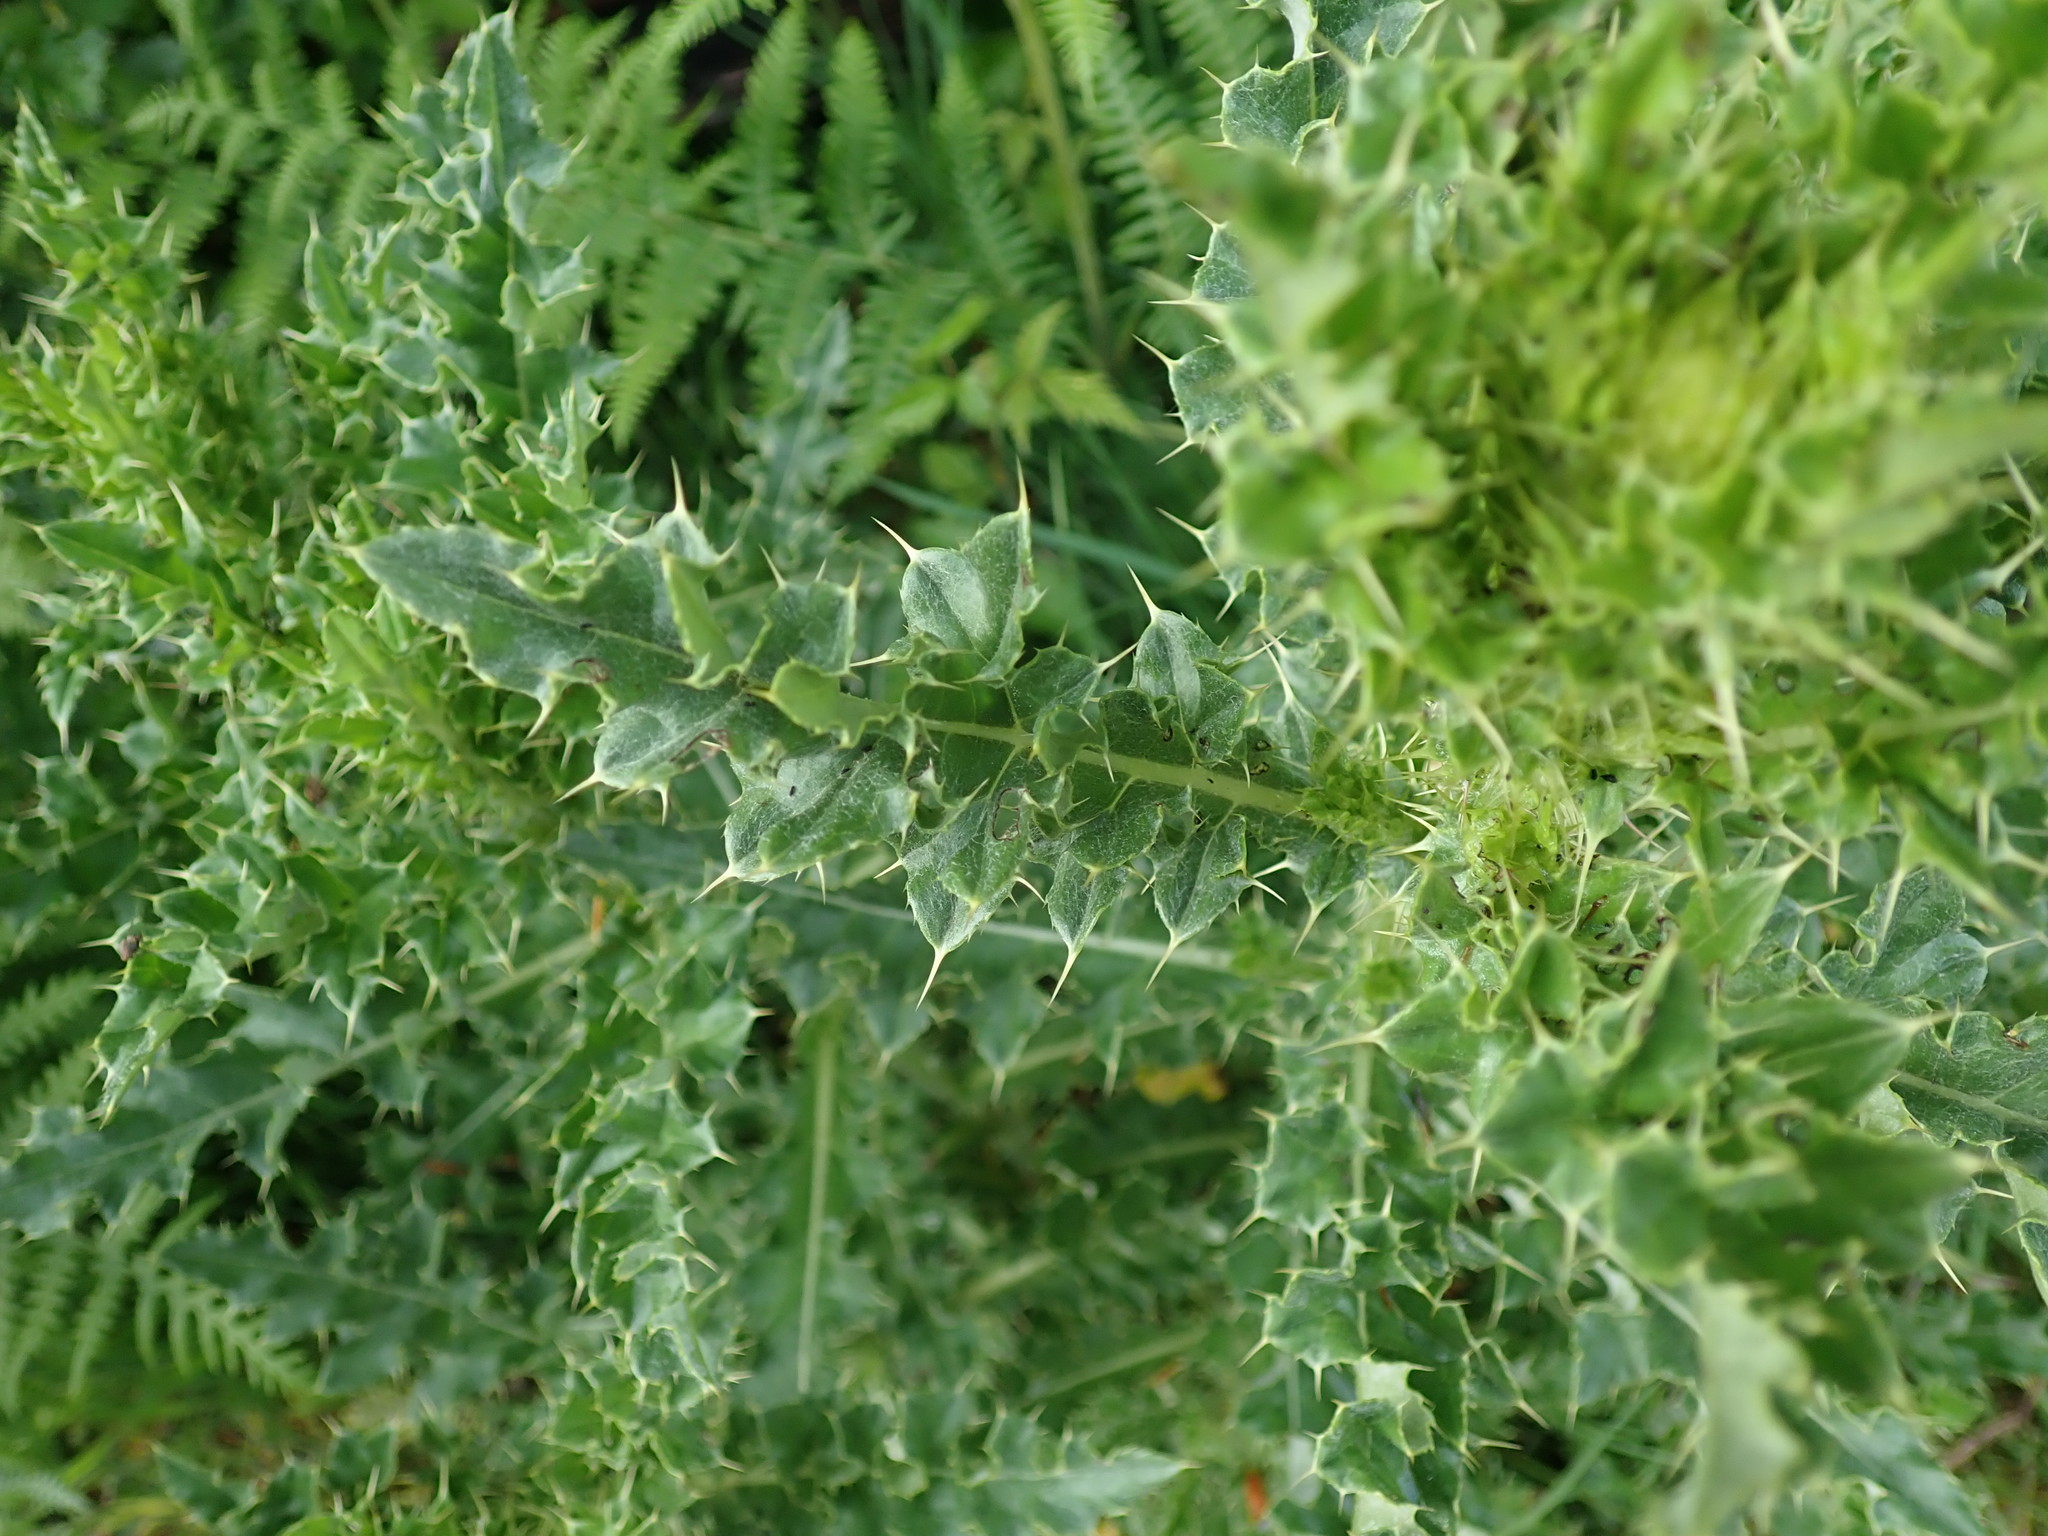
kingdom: Plantae
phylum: Tracheophyta
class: Magnoliopsida
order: Asterales
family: Asteraceae
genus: Cirsium
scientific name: Cirsium arvense
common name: Creeping thistle
